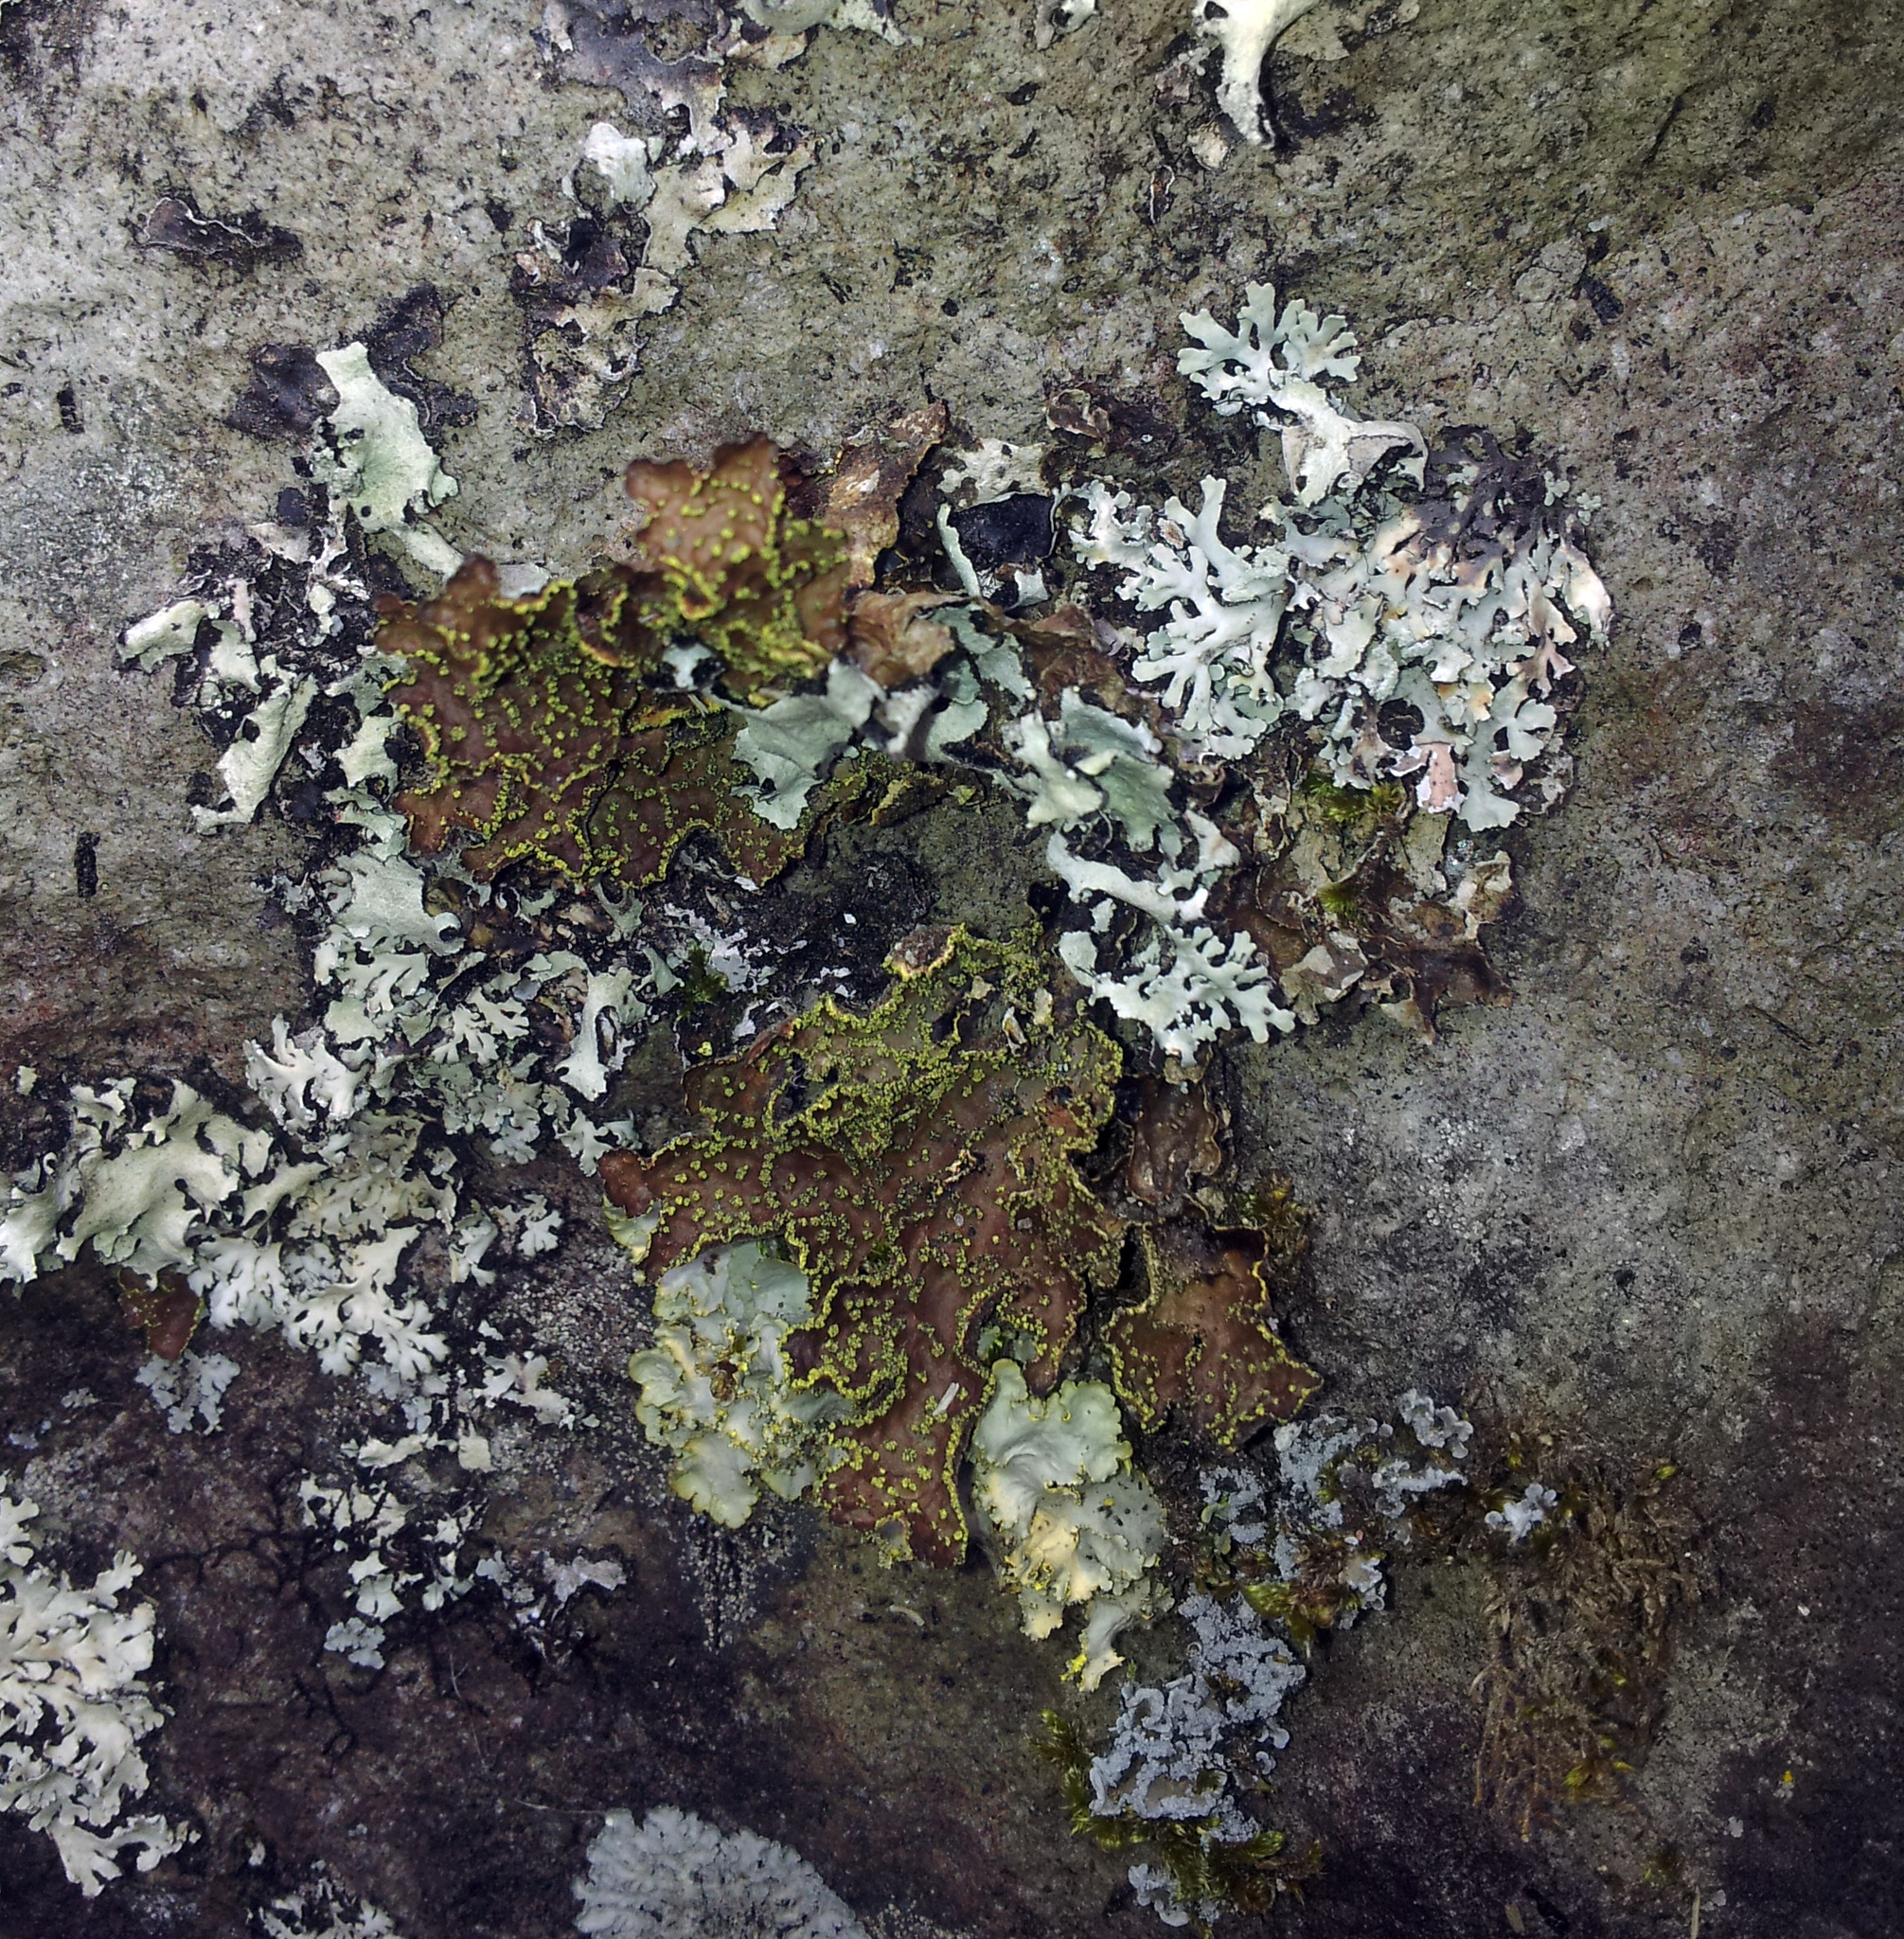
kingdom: Fungi
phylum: Ascomycota
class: Lecanoromycetes
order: Peltigerales
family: Lobariaceae
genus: Pseudocyphellaria
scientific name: Pseudocyphellaria crocata
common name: Golden specklebelly
